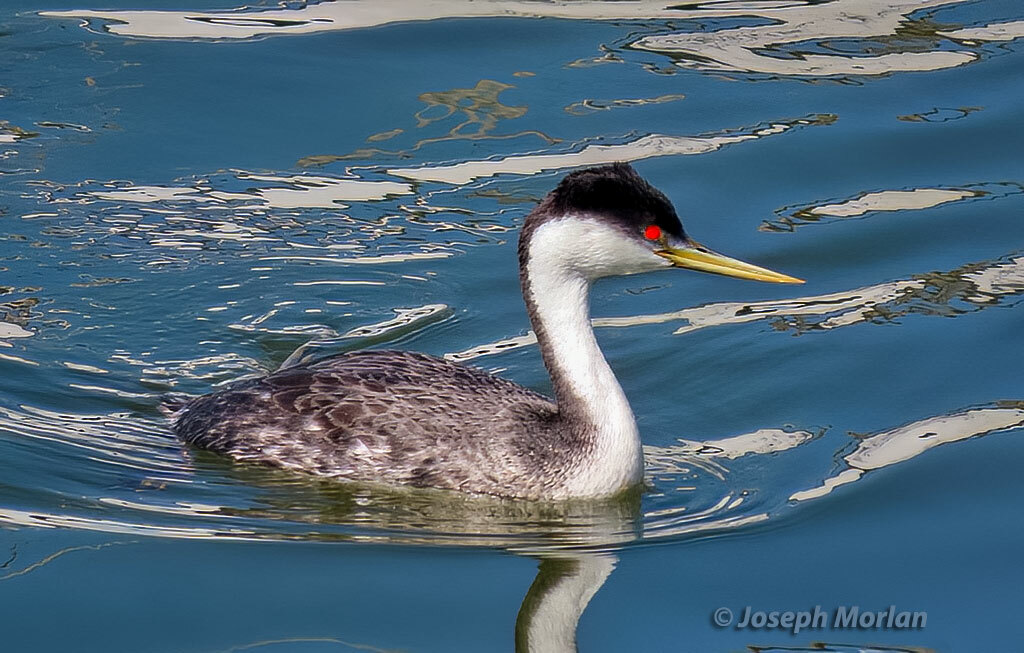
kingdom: Animalia
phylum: Chordata
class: Aves
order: Podicipediformes
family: Podicipedidae
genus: Aechmophorus
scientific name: Aechmophorus occidentalis
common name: Western grebe
